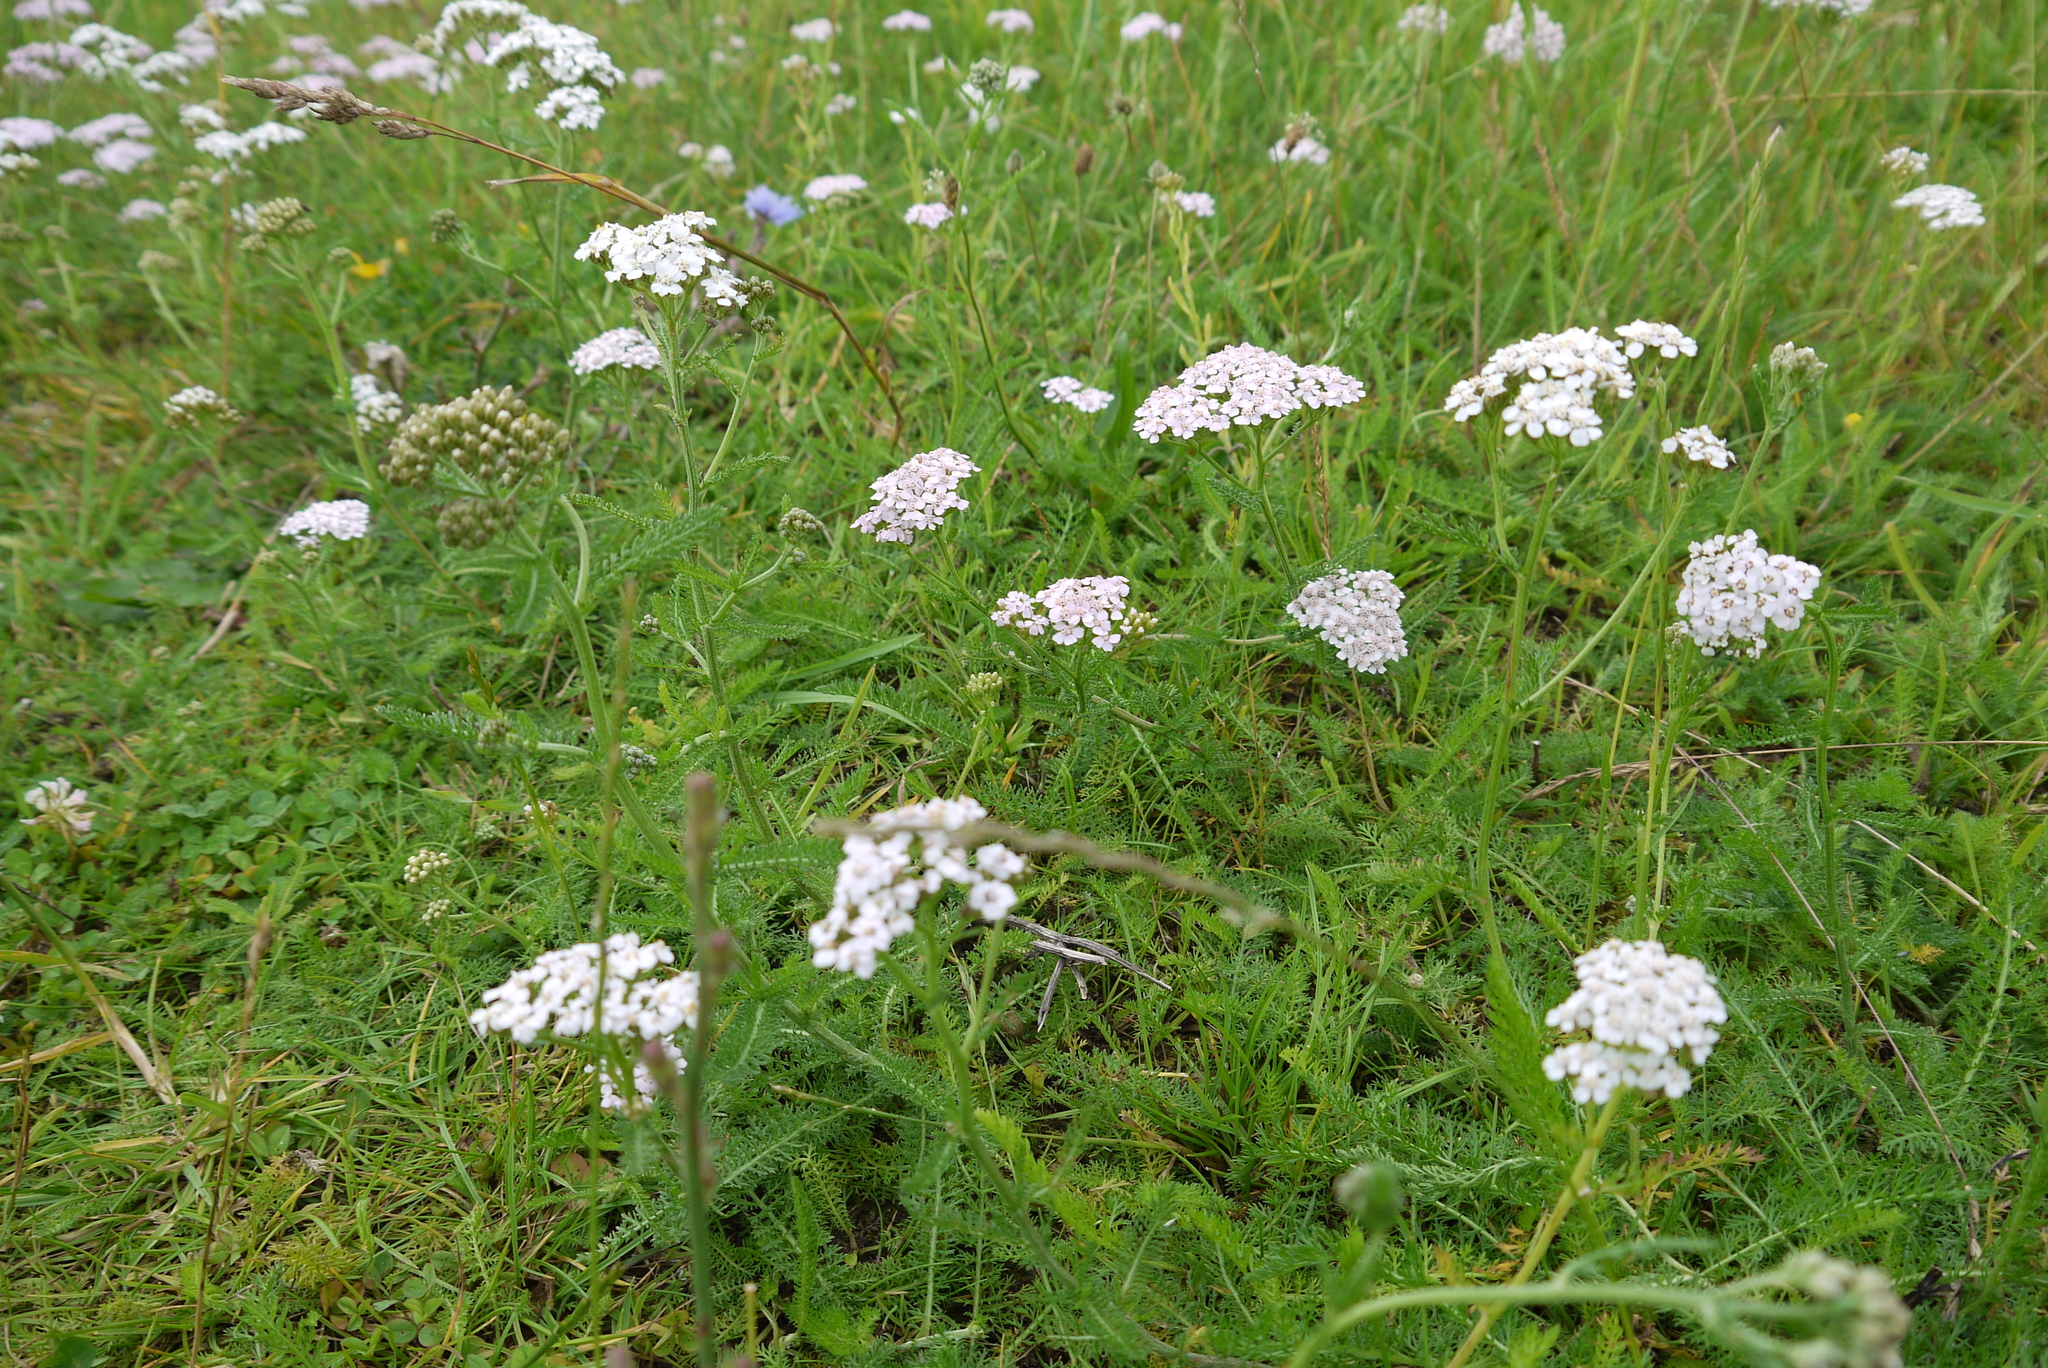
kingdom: Plantae
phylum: Tracheophyta
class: Magnoliopsida
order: Asterales
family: Asteraceae
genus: Achillea
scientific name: Achillea millefolium
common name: Yarrow
